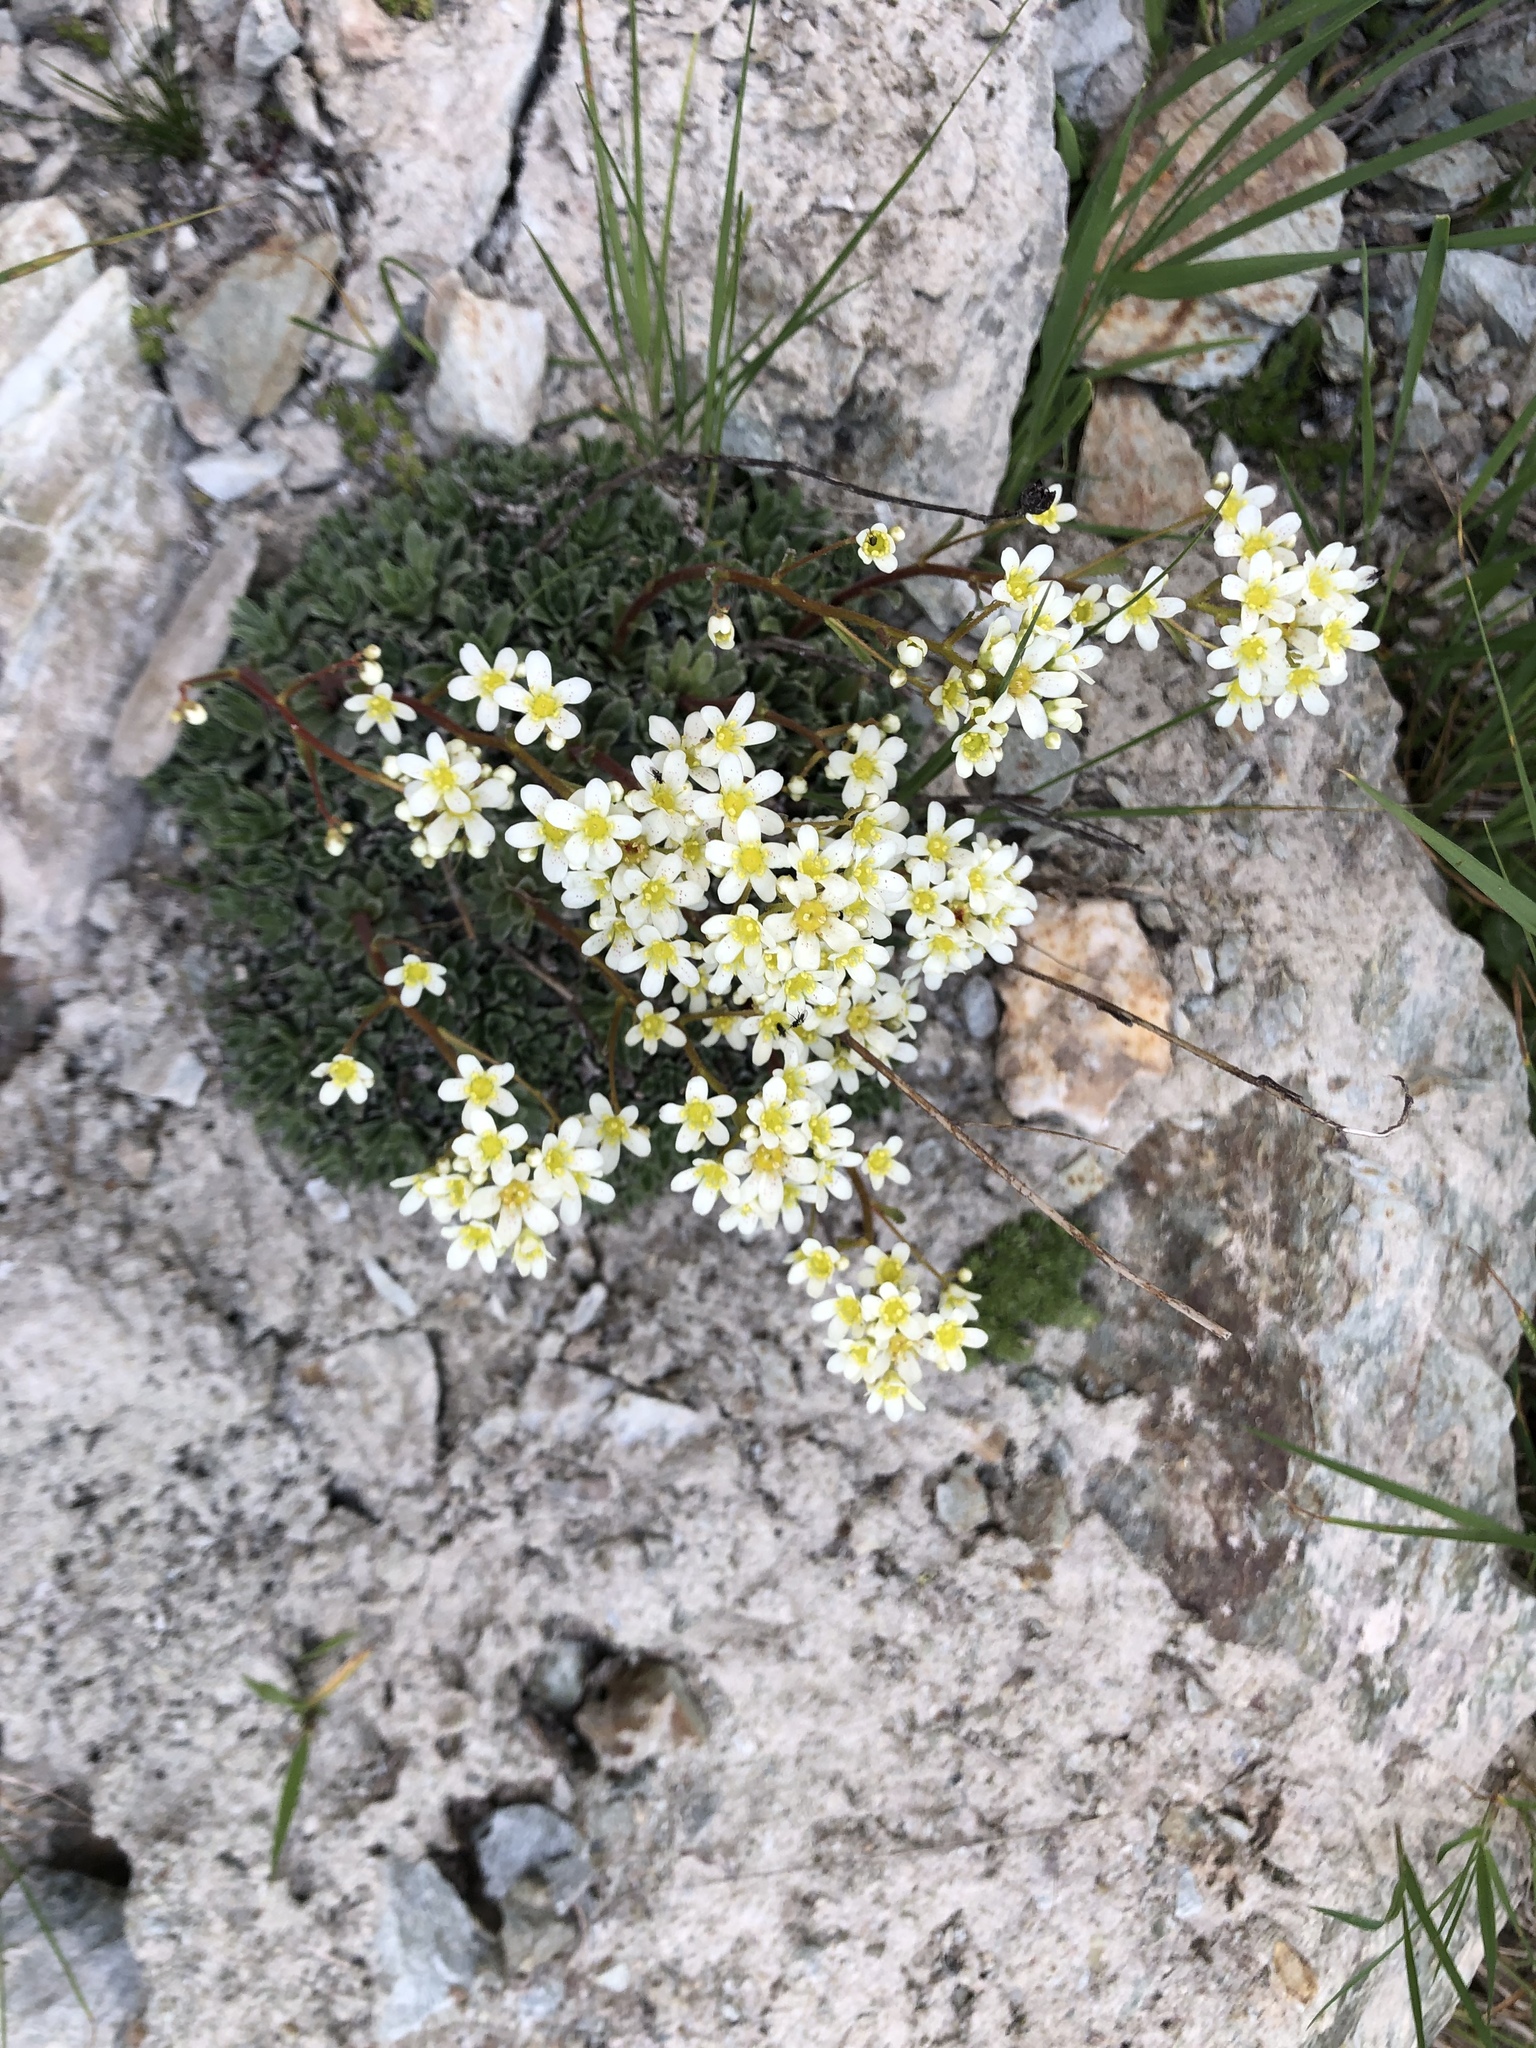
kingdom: Plantae
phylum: Tracheophyta
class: Magnoliopsida
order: Saxifragales
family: Saxifragaceae
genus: Saxifraga
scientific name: Saxifraga paniculata
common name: Livelong saxifrage
